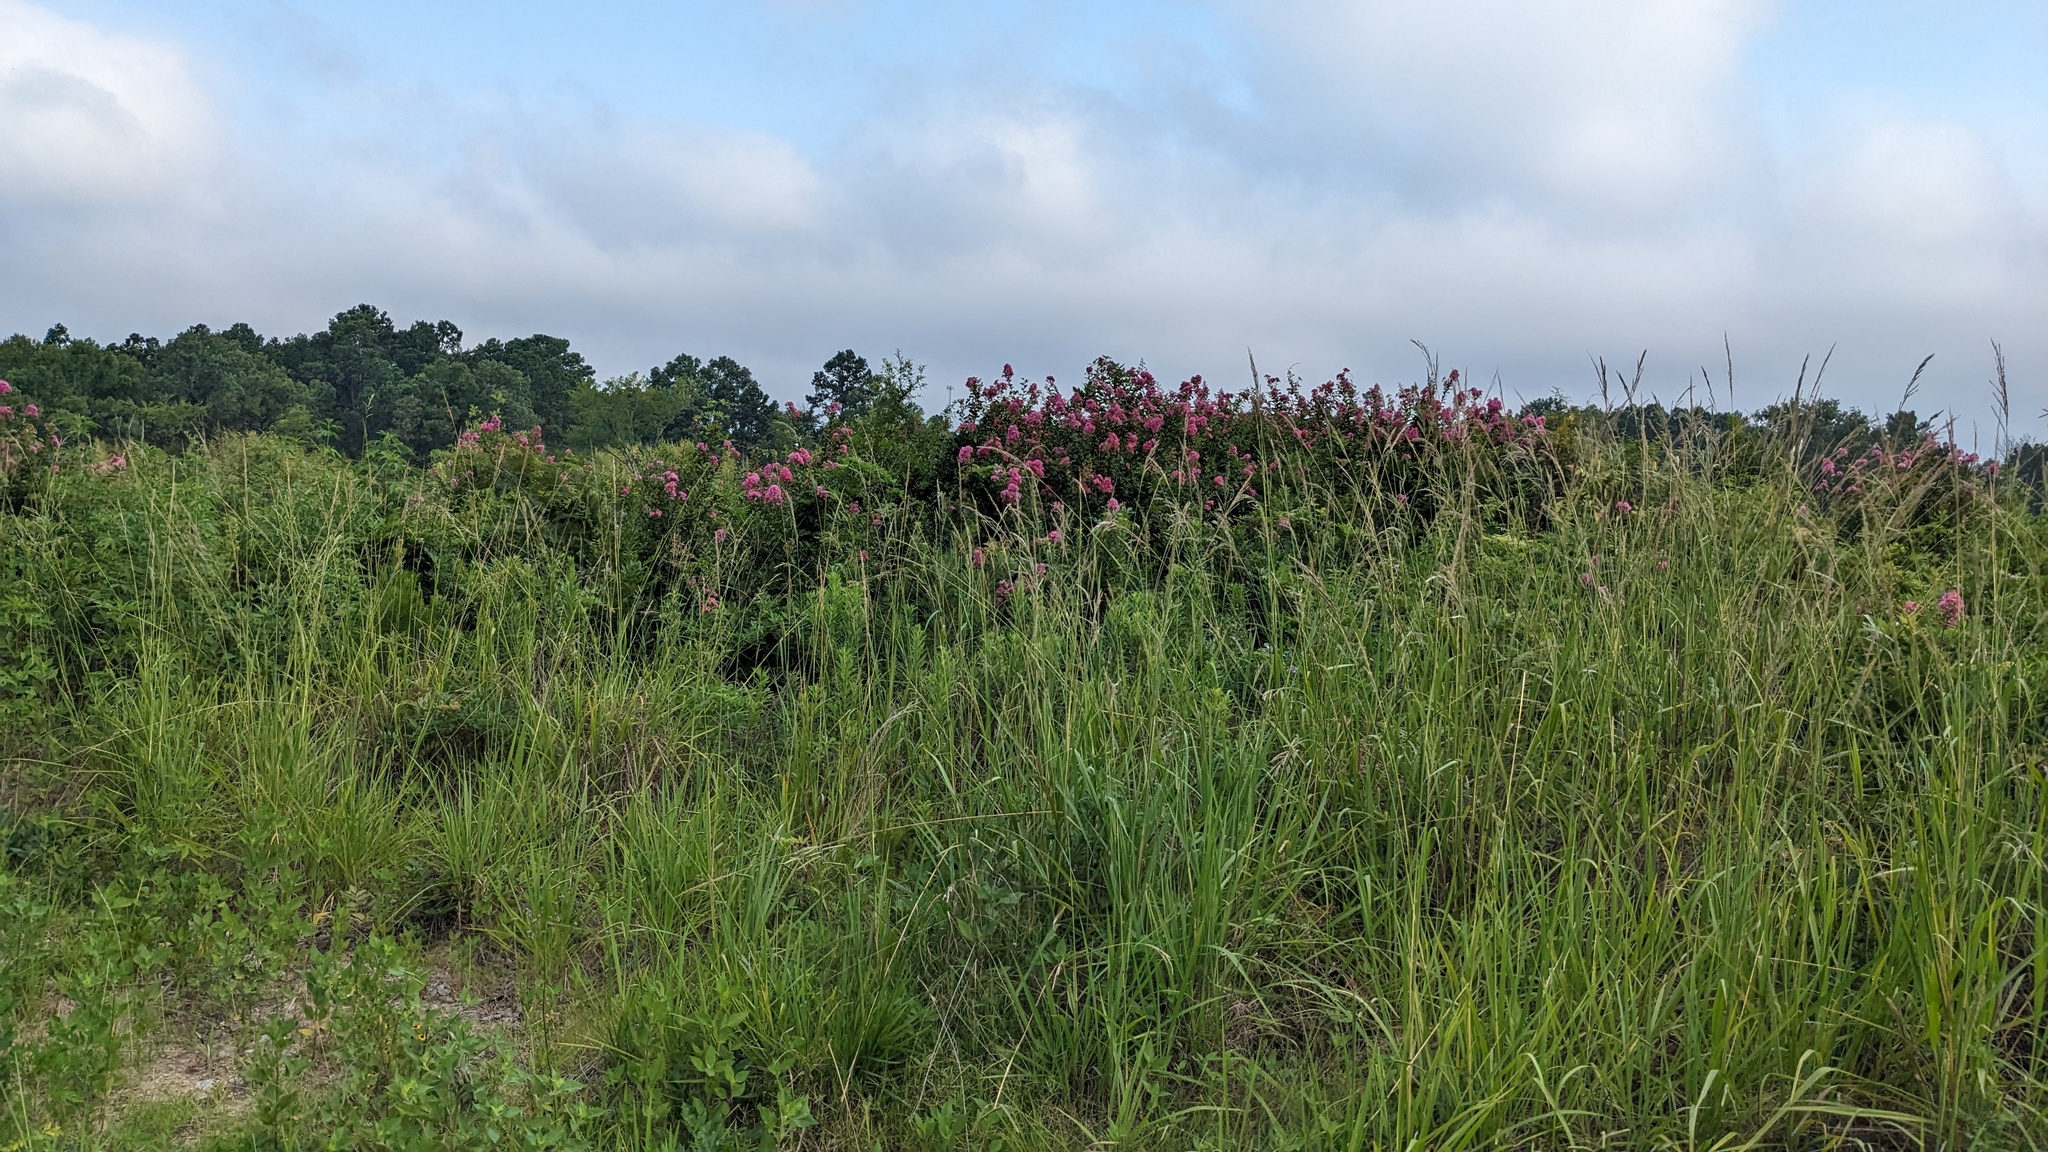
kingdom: Plantae
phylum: Tracheophyta
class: Magnoliopsida
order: Myrtales
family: Lythraceae
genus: Lagerstroemia
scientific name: Lagerstroemia indica
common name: Crape-myrtle
